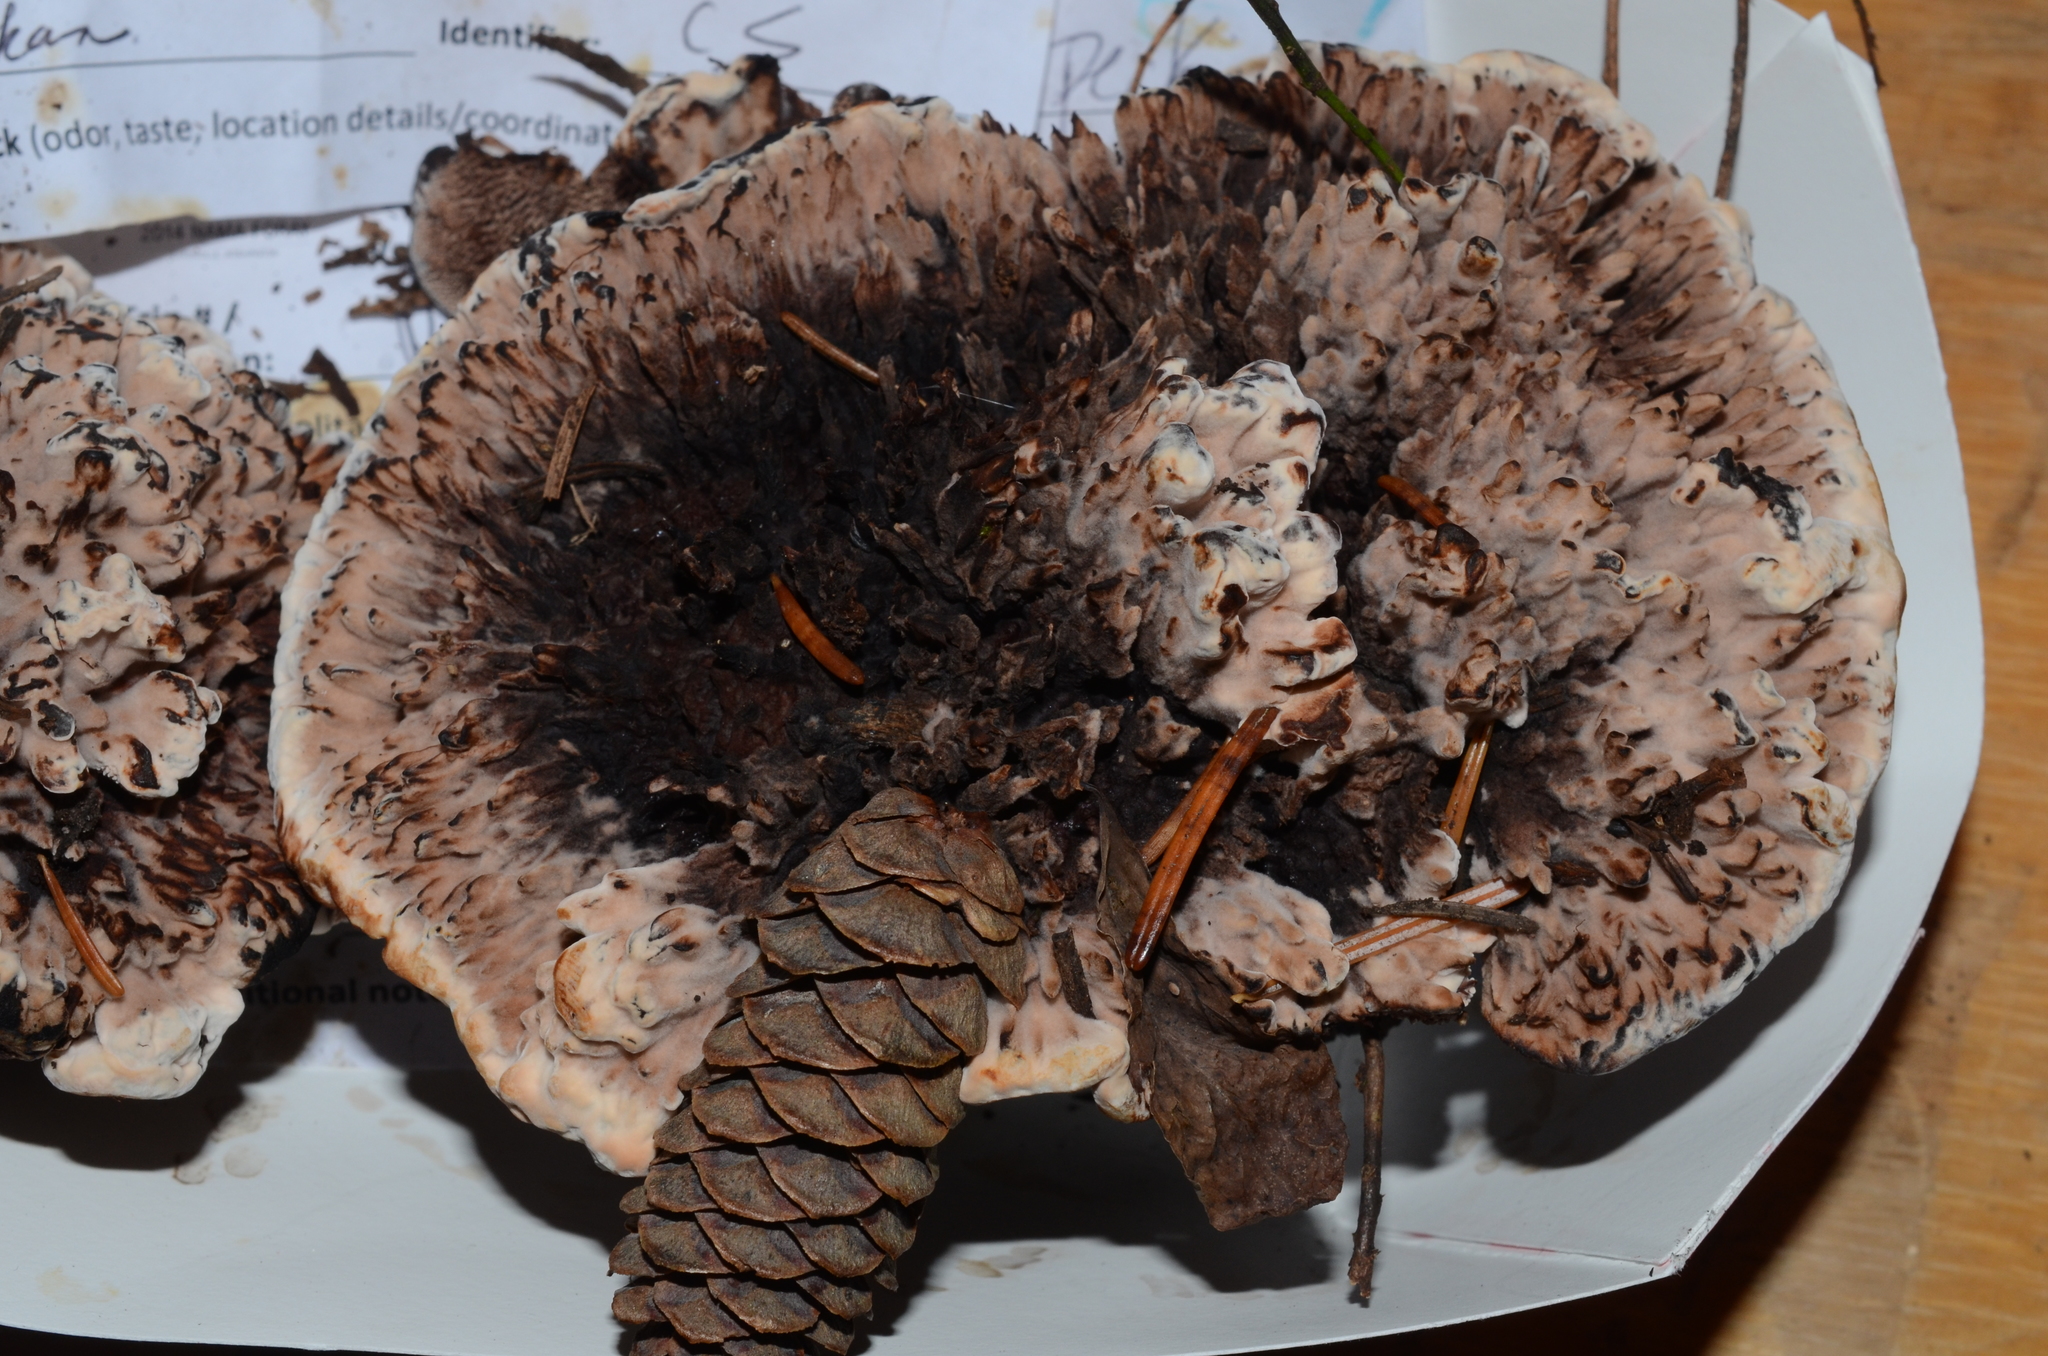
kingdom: Fungi
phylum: Basidiomycota
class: Agaricomycetes
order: Thelephorales
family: Bankeraceae
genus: Hydnellum
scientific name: Hydnellum peckii
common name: Devil's tooth
